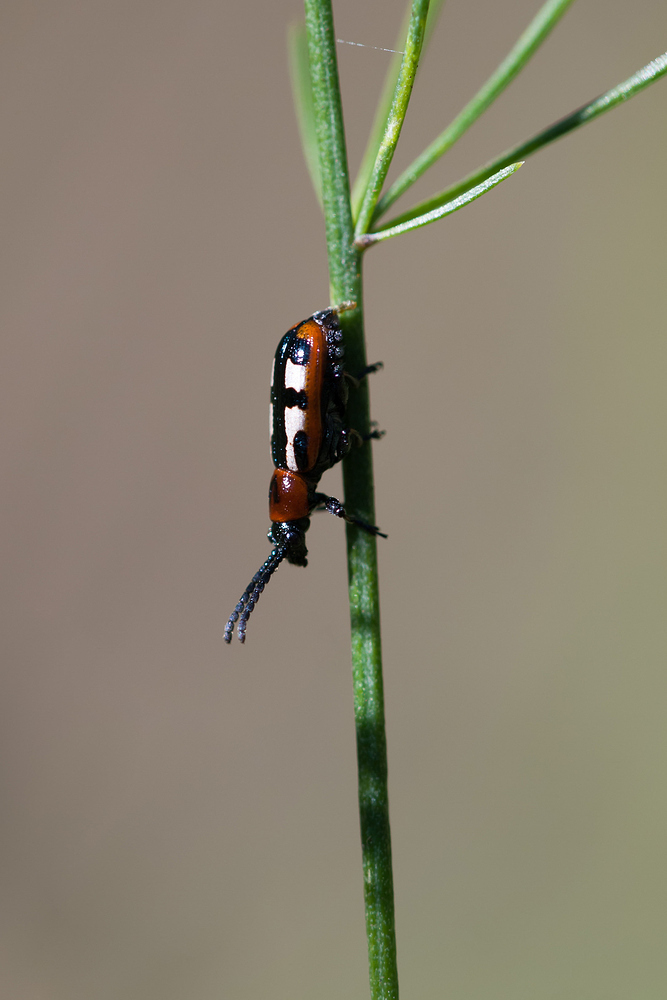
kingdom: Animalia
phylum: Arthropoda
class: Insecta
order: Coleoptera
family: Chrysomelidae
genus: Crioceris
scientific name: Crioceris asparagi
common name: Asparagus beetle
